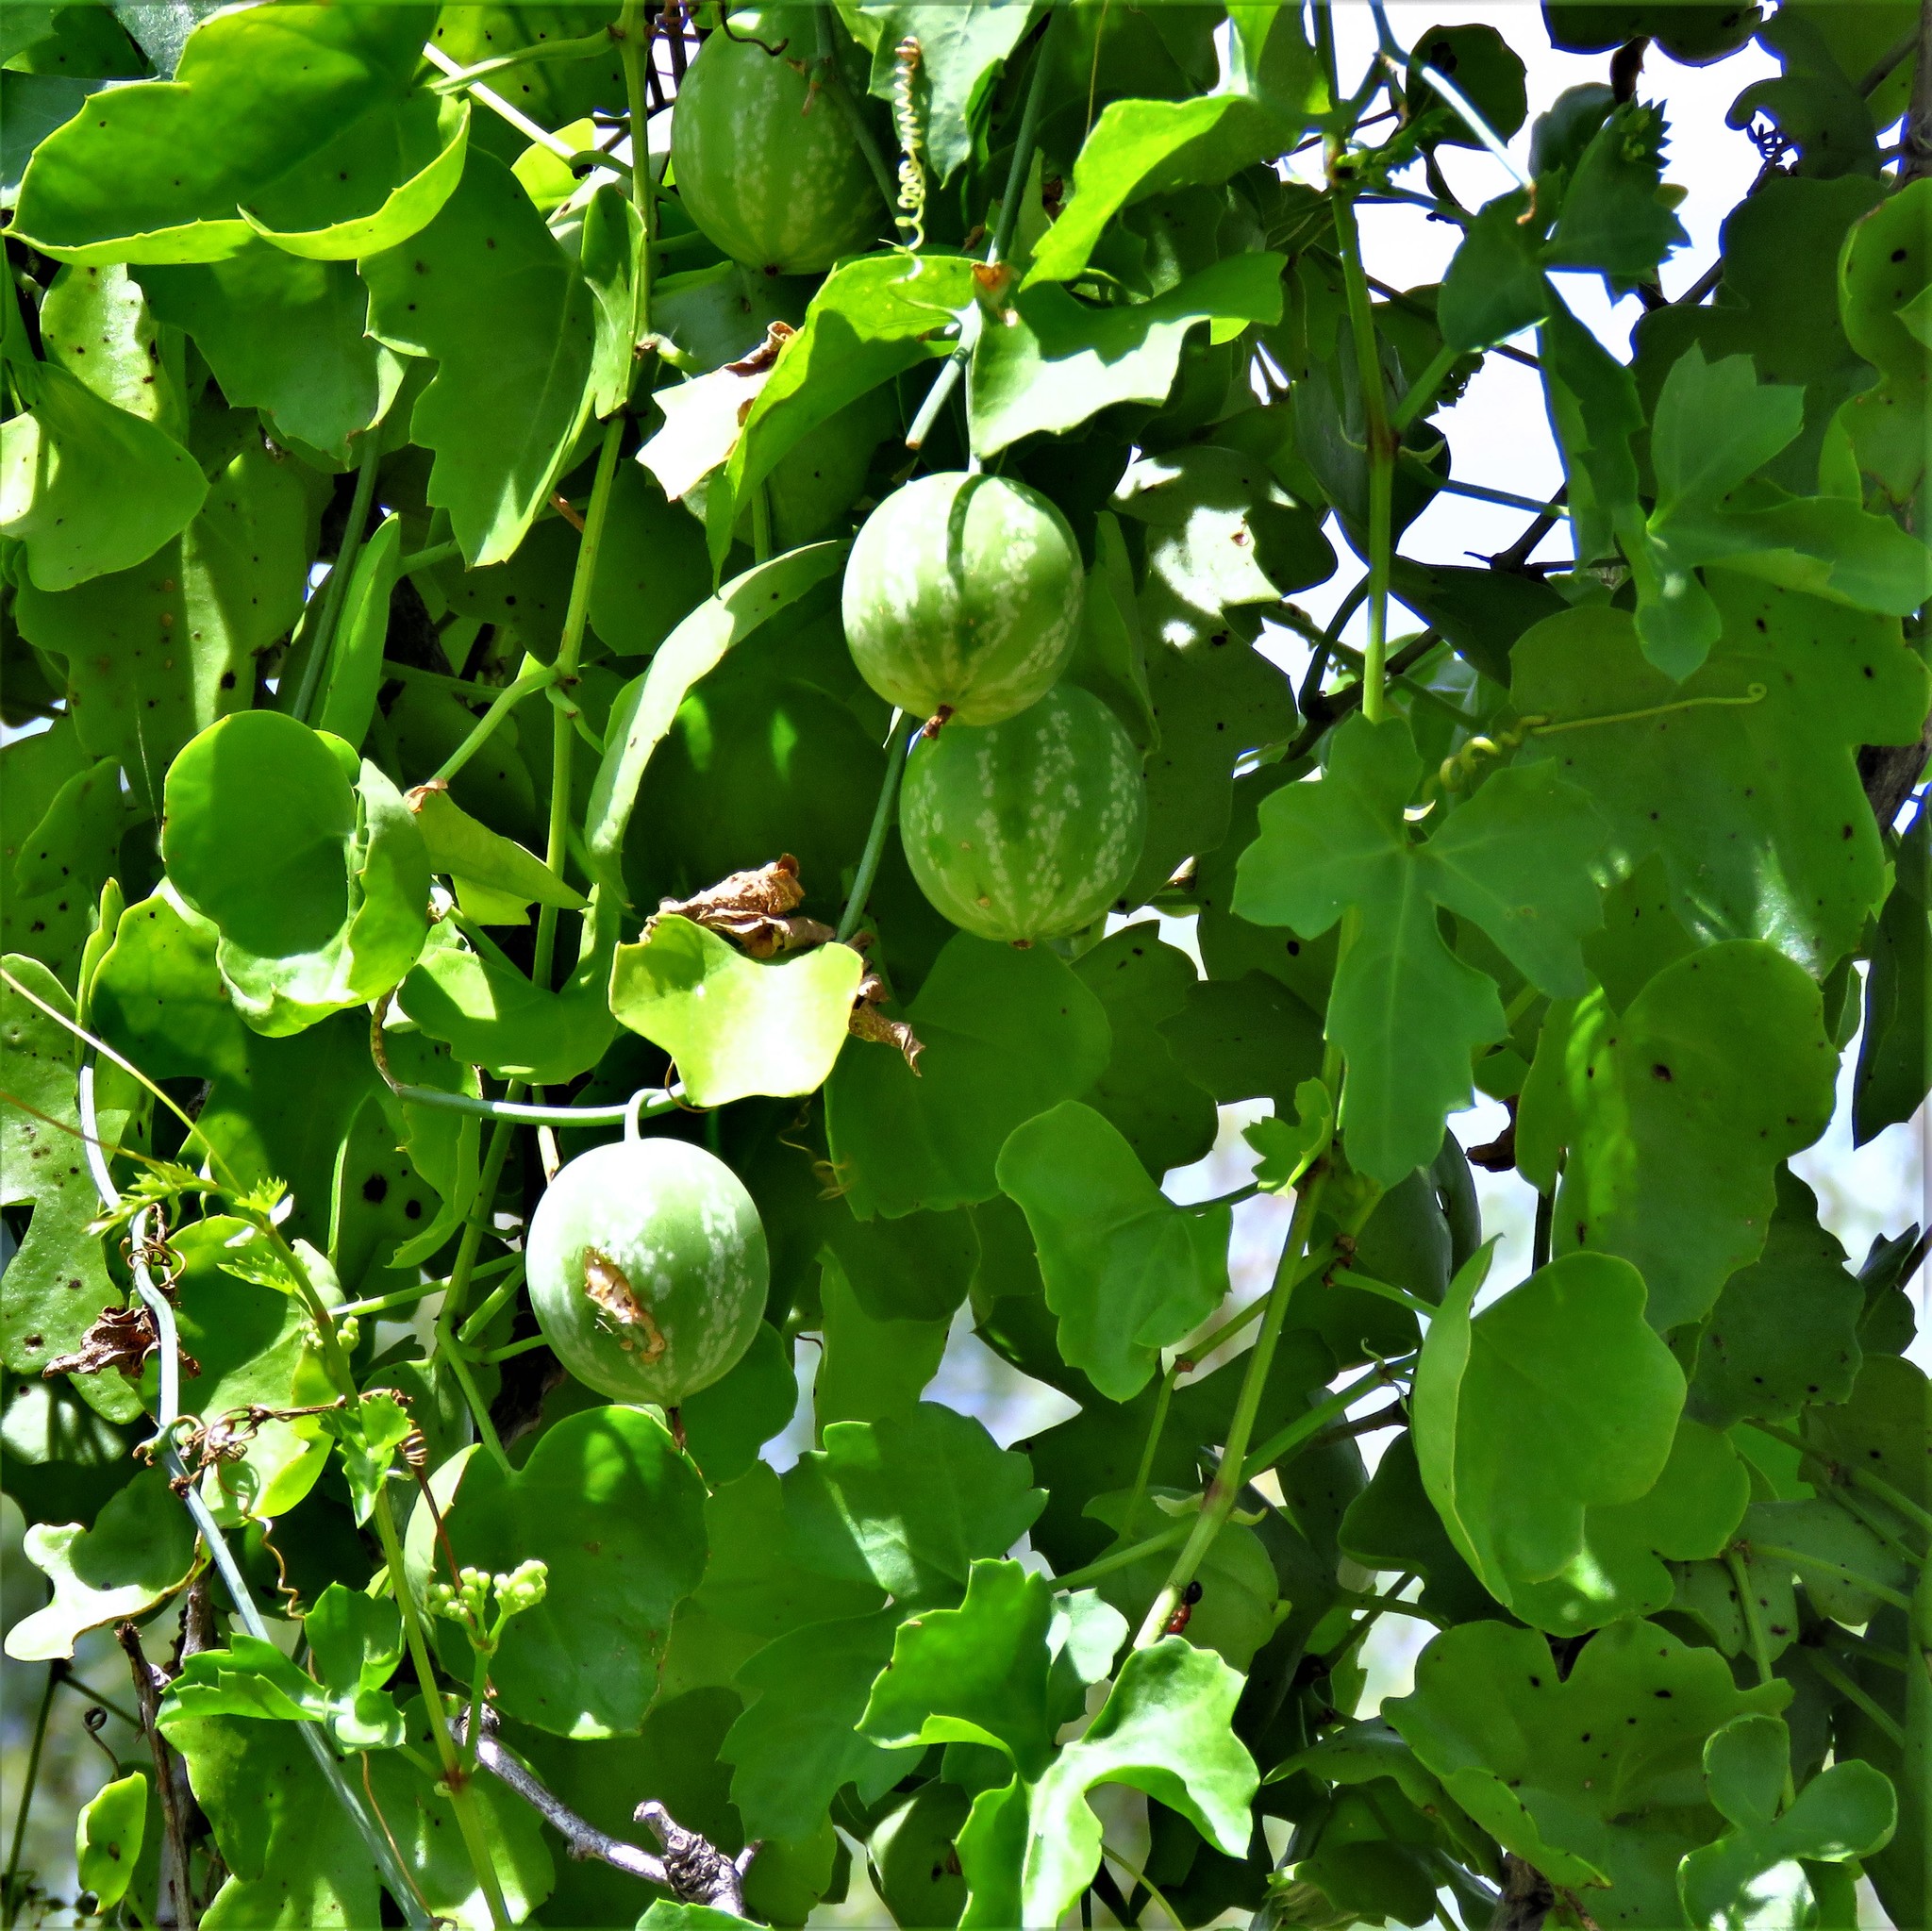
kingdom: Plantae
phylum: Tracheophyta
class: Magnoliopsida
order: Cucurbitales
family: Cucurbitaceae
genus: Ibervillea
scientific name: Ibervillea lindheimeri
